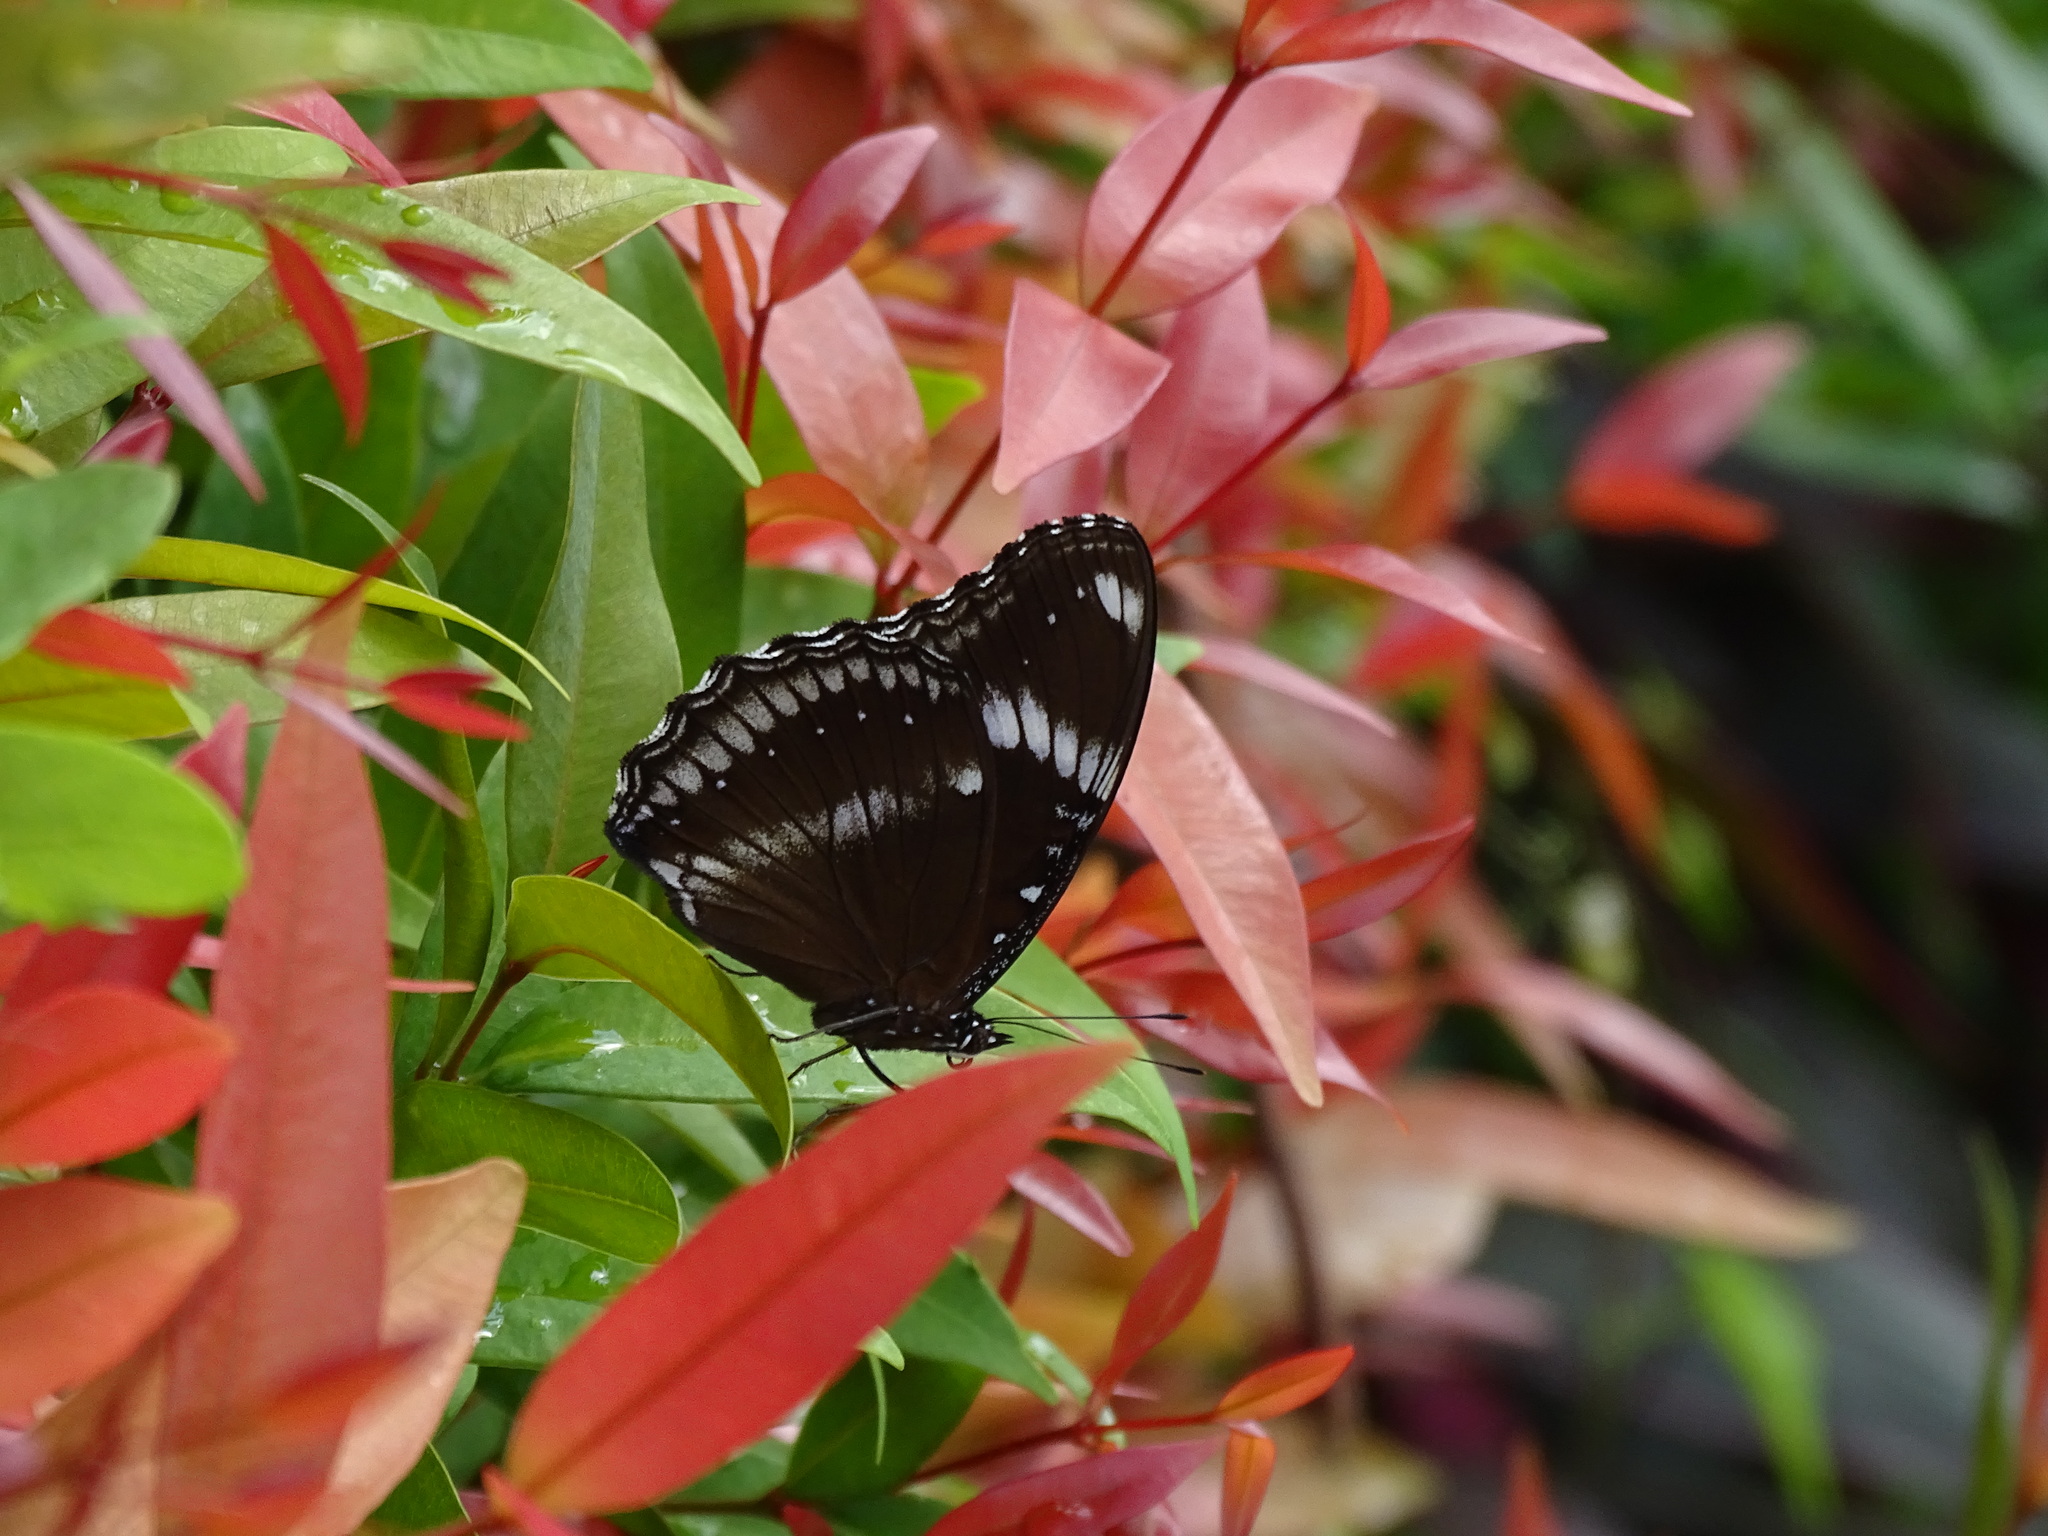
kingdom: Animalia
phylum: Arthropoda
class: Insecta
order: Lepidoptera
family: Nymphalidae
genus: Hypolimnas
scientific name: Hypolimnas bolina
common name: Great eggfly
